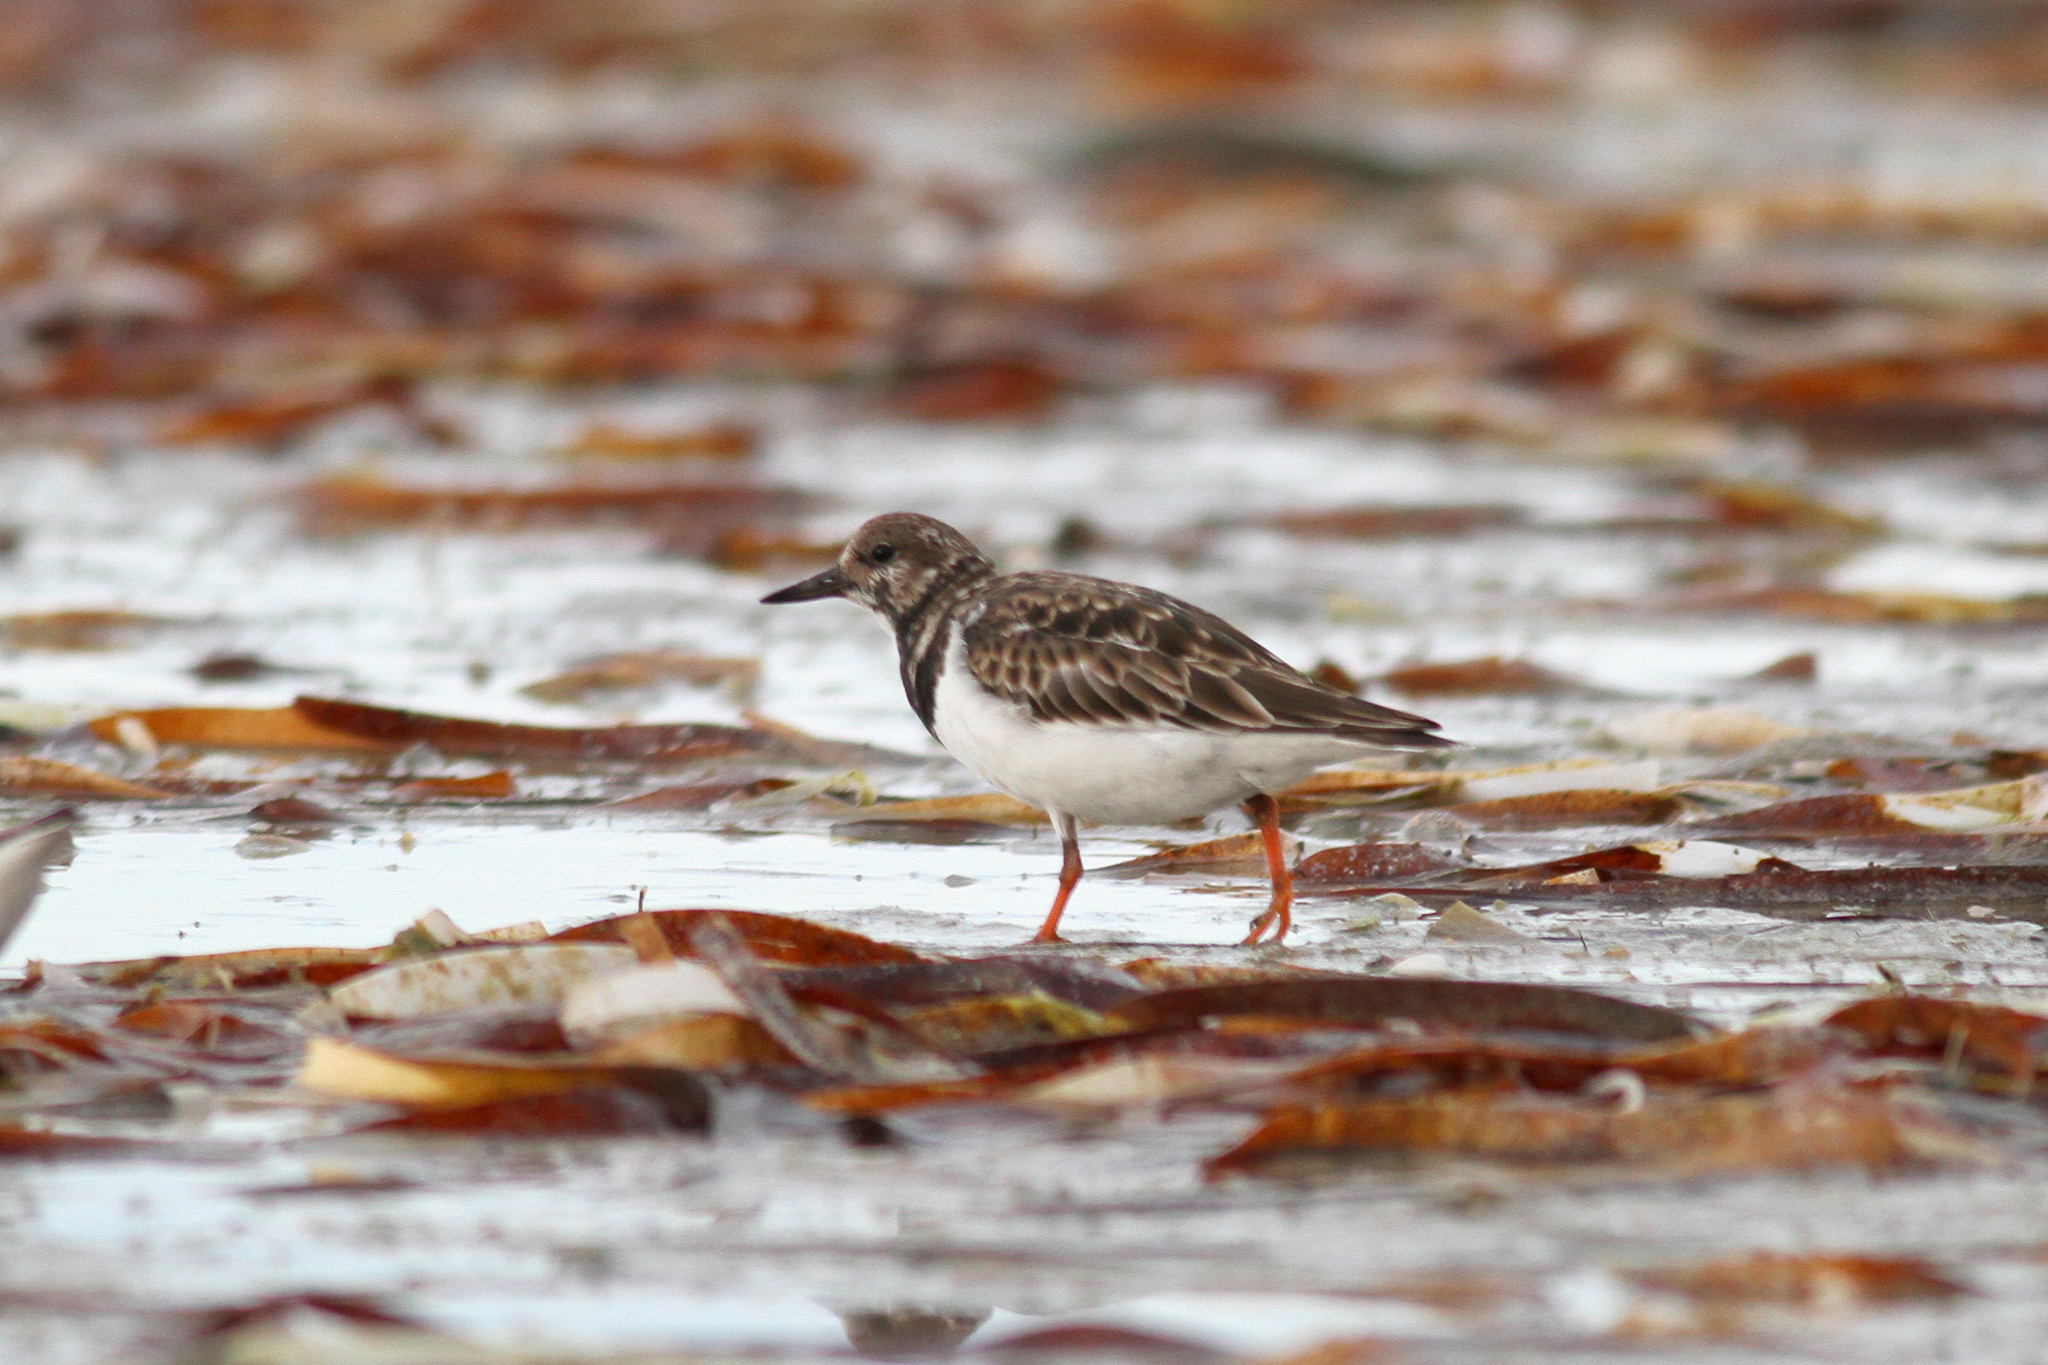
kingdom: Animalia
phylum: Chordata
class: Aves
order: Charadriiformes
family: Scolopacidae
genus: Arenaria
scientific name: Arenaria interpres
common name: Ruddy turnstone
